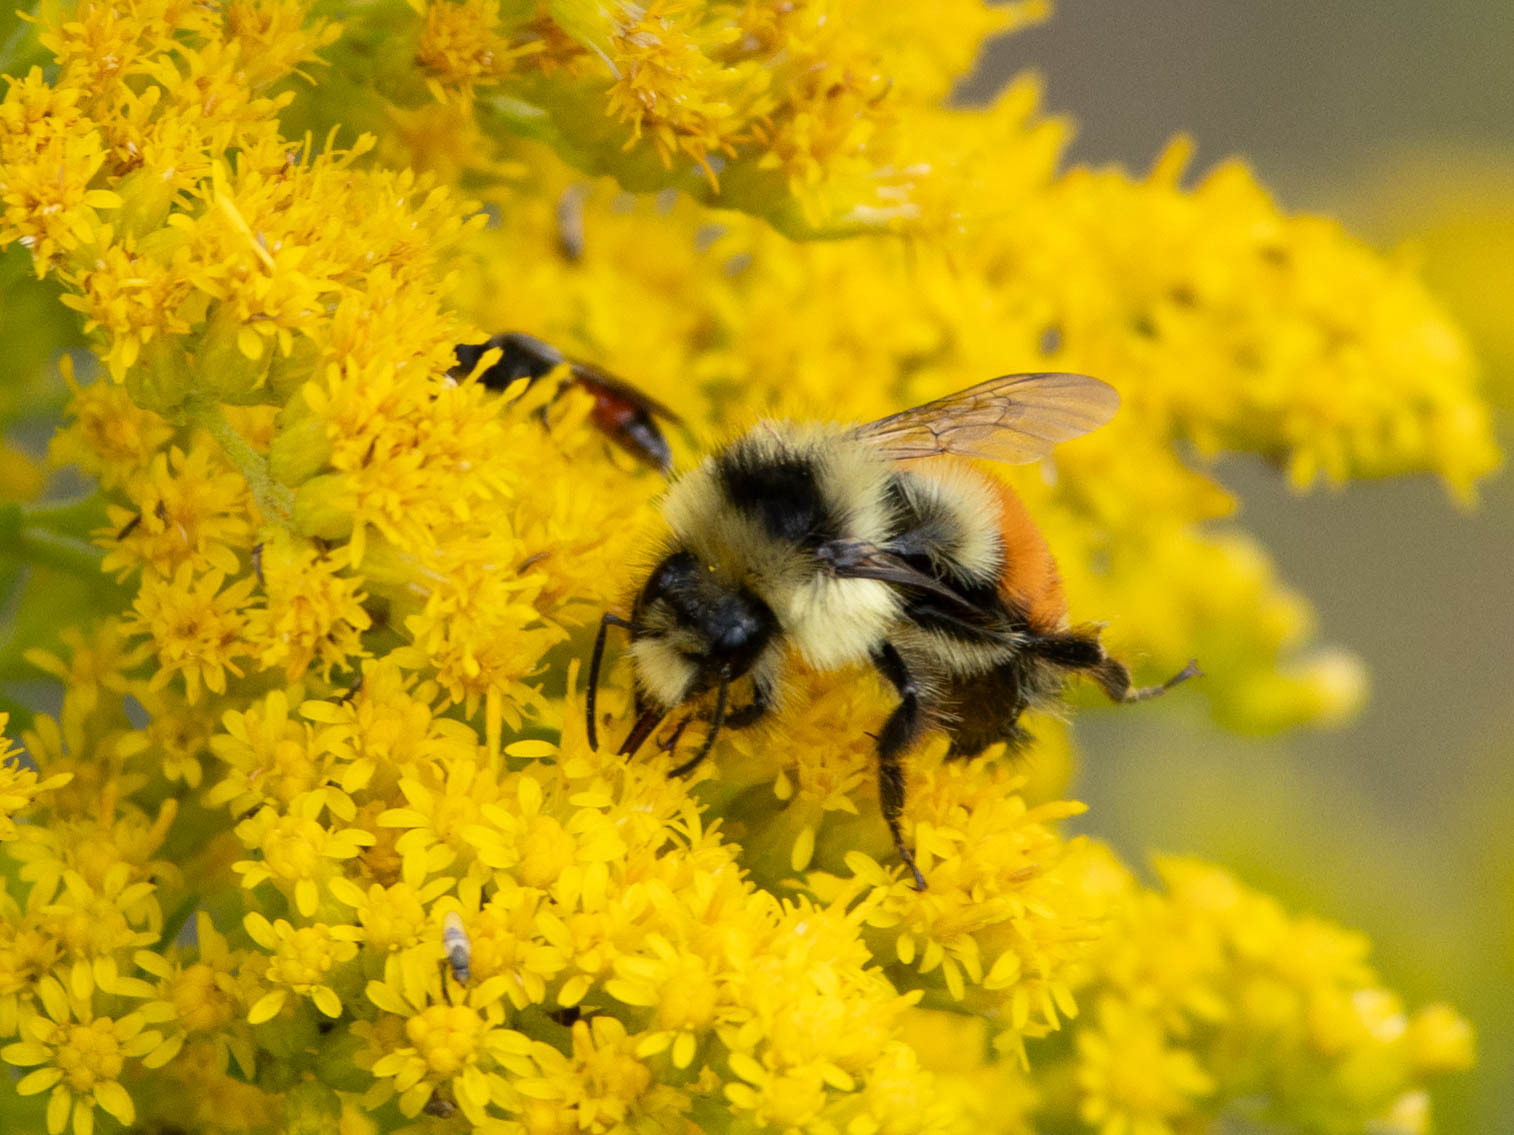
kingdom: Animalia
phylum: Arthropoda
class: Insecta
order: Hymenoptera
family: Apidae
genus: Bombus
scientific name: Bombus ternarius
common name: Tri-colored bumble bee
